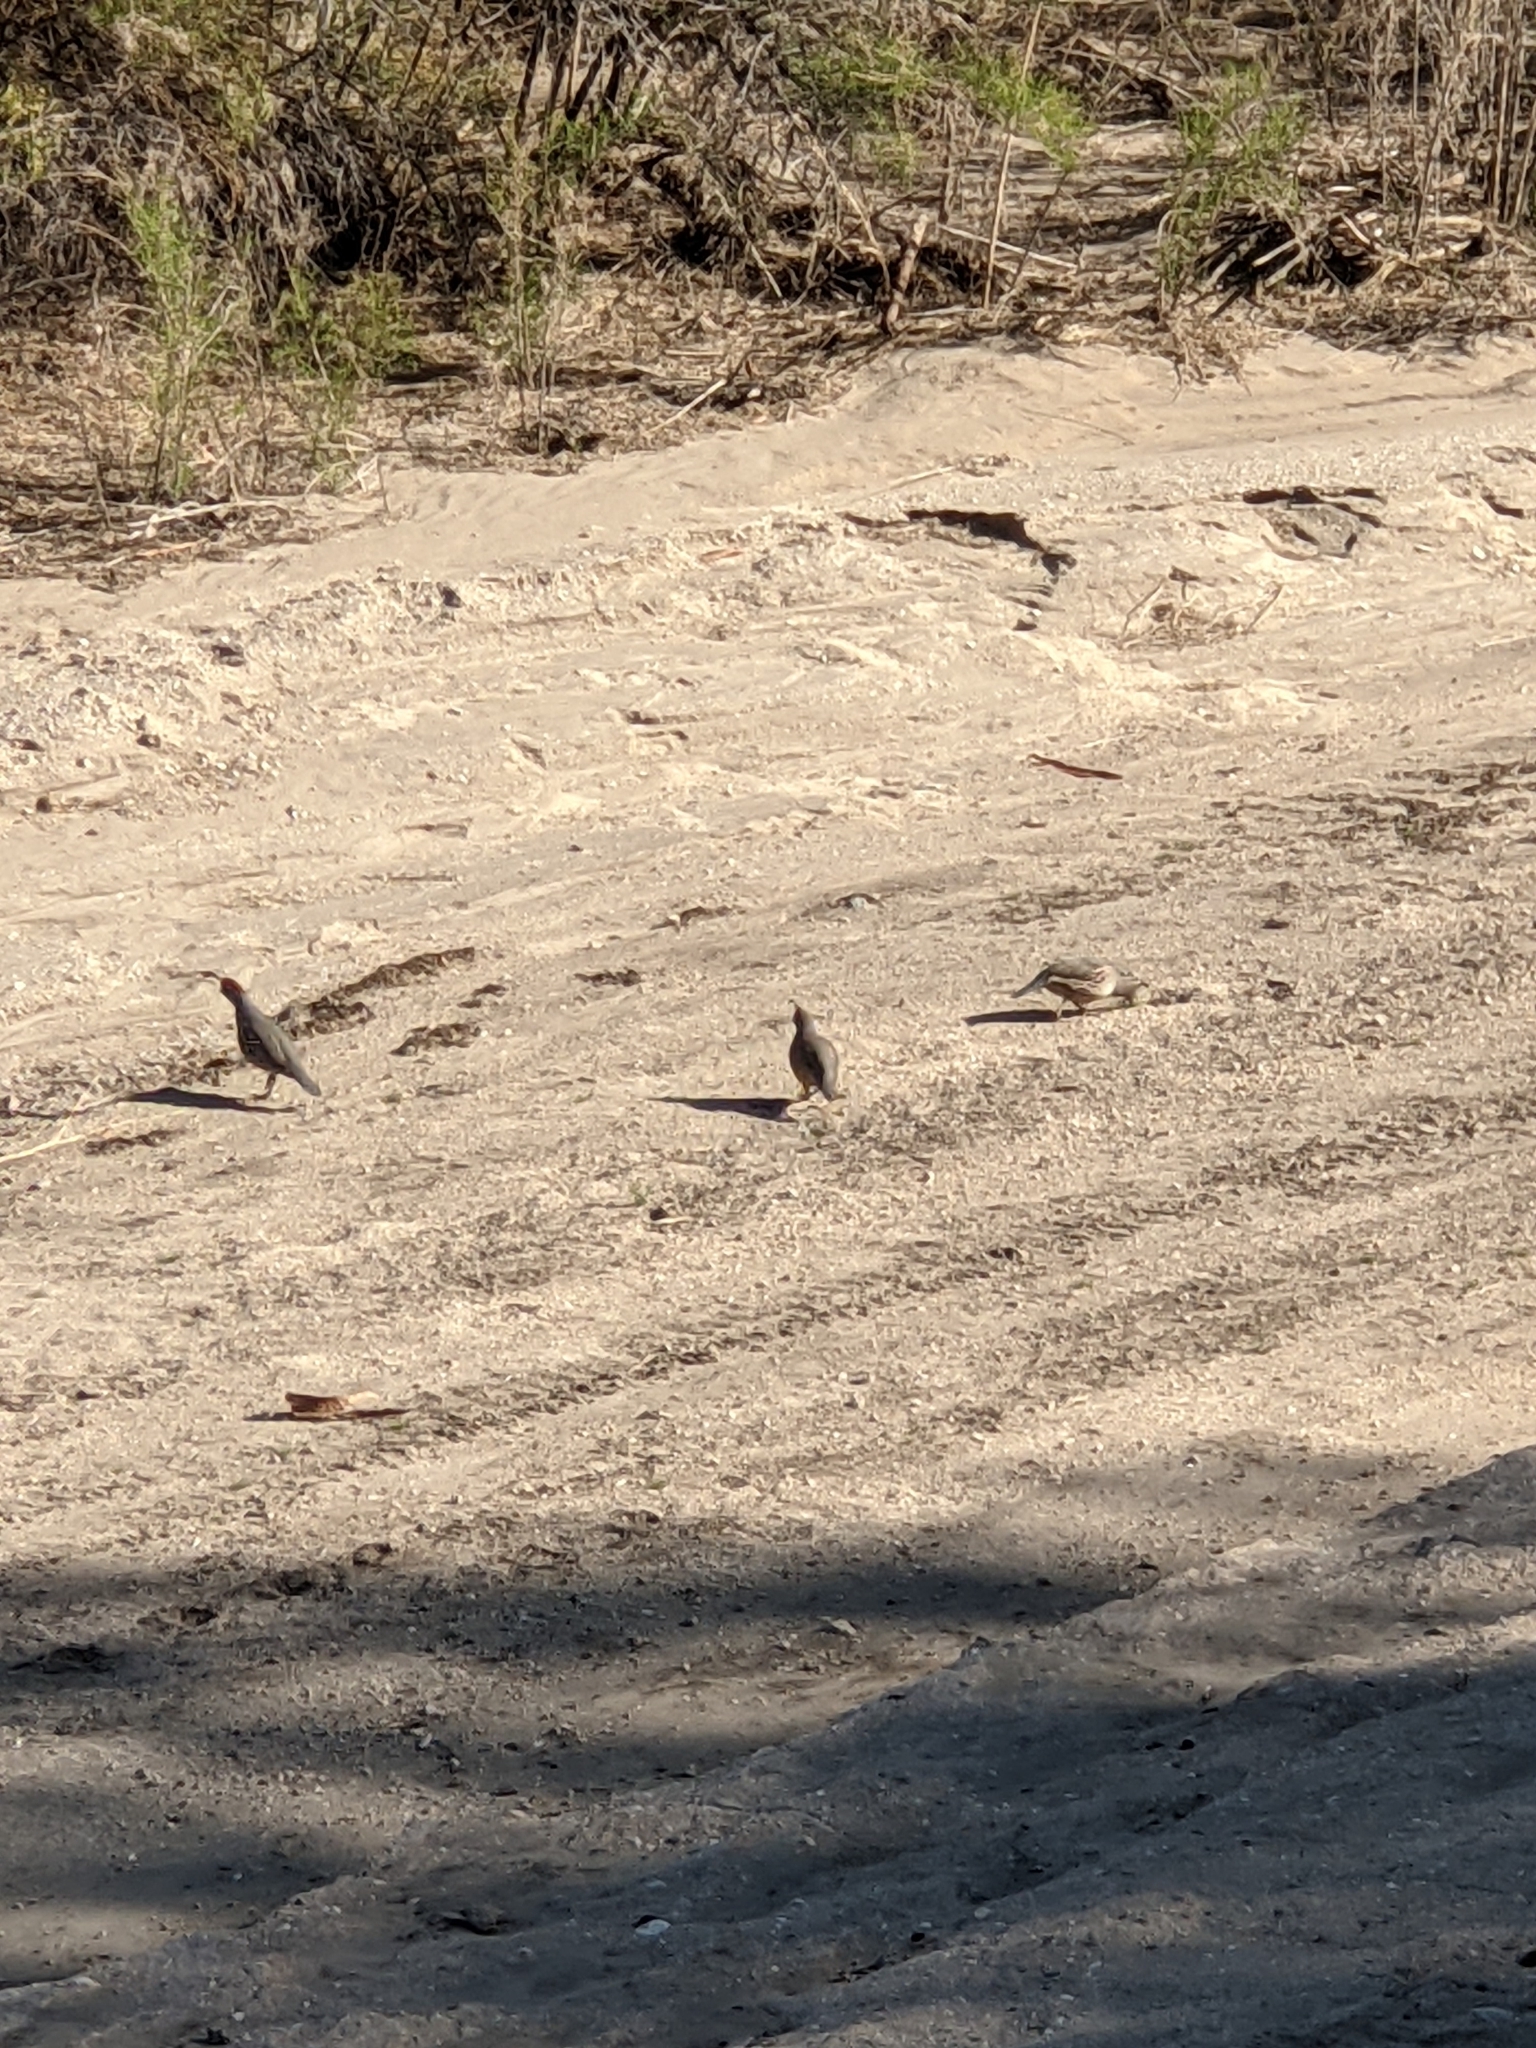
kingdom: Animalia
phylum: Chordata
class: Aves
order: Galliformes
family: Odontophoridae
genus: Callipepla
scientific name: Callipepla gambelii
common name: Gambel's quail
